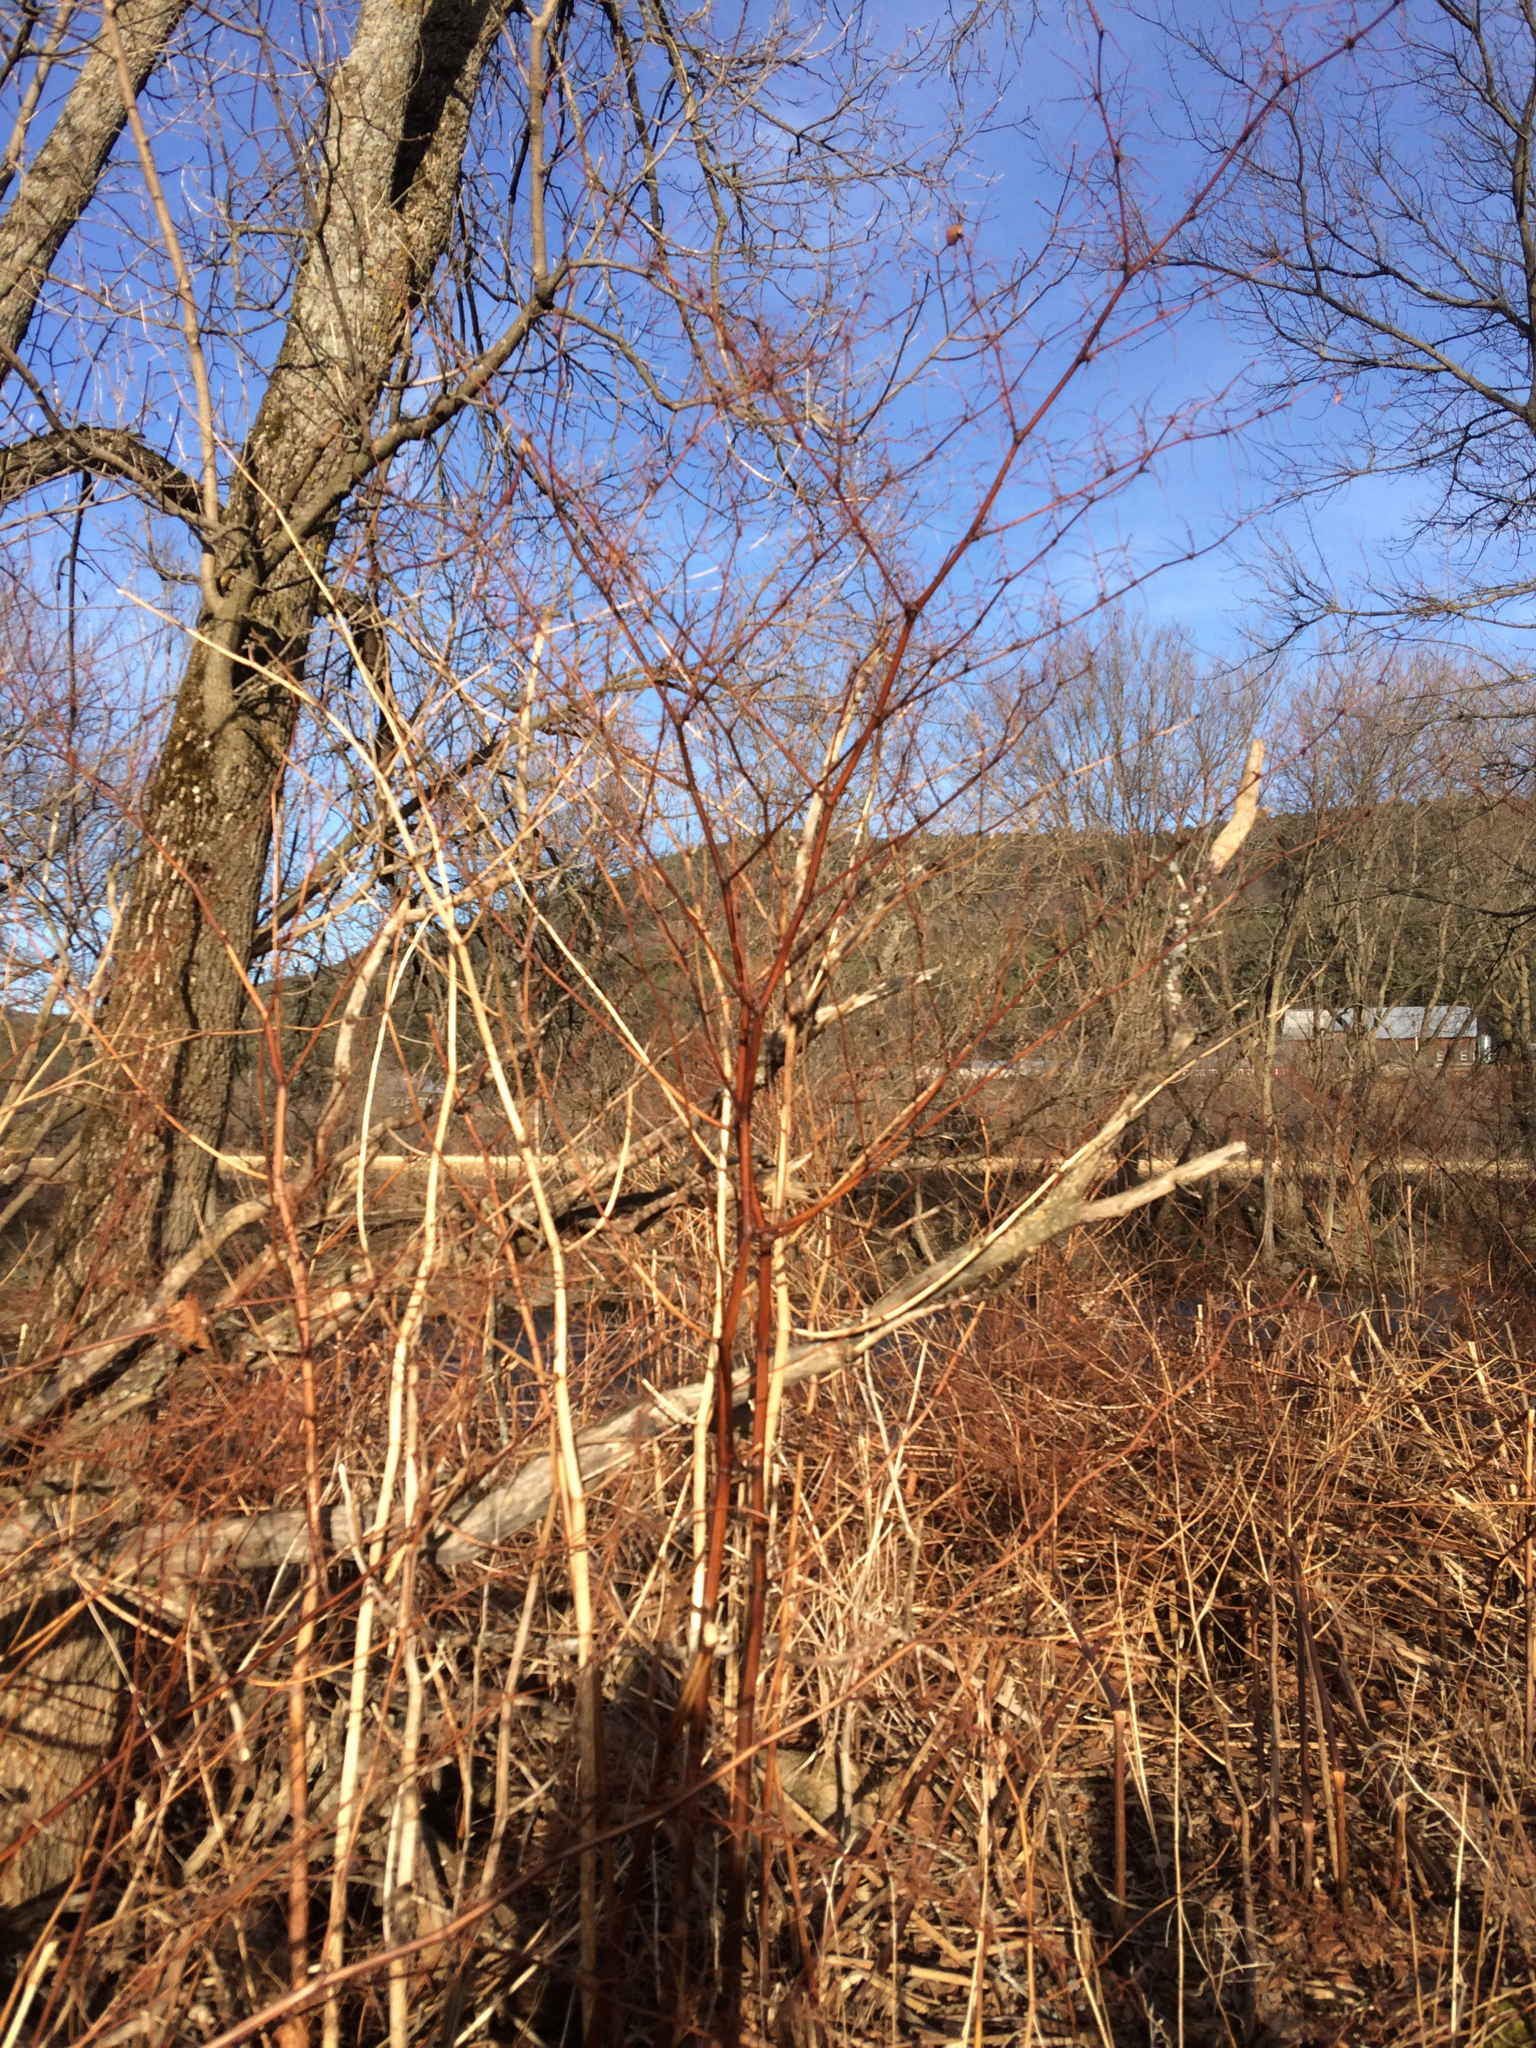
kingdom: Plantae
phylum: Tracheophyta
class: Magnoliopsida
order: Caryophyllales
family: Polygonaceae
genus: Reynoutria
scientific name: Reynoutria japonica
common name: Japanese knotweed
